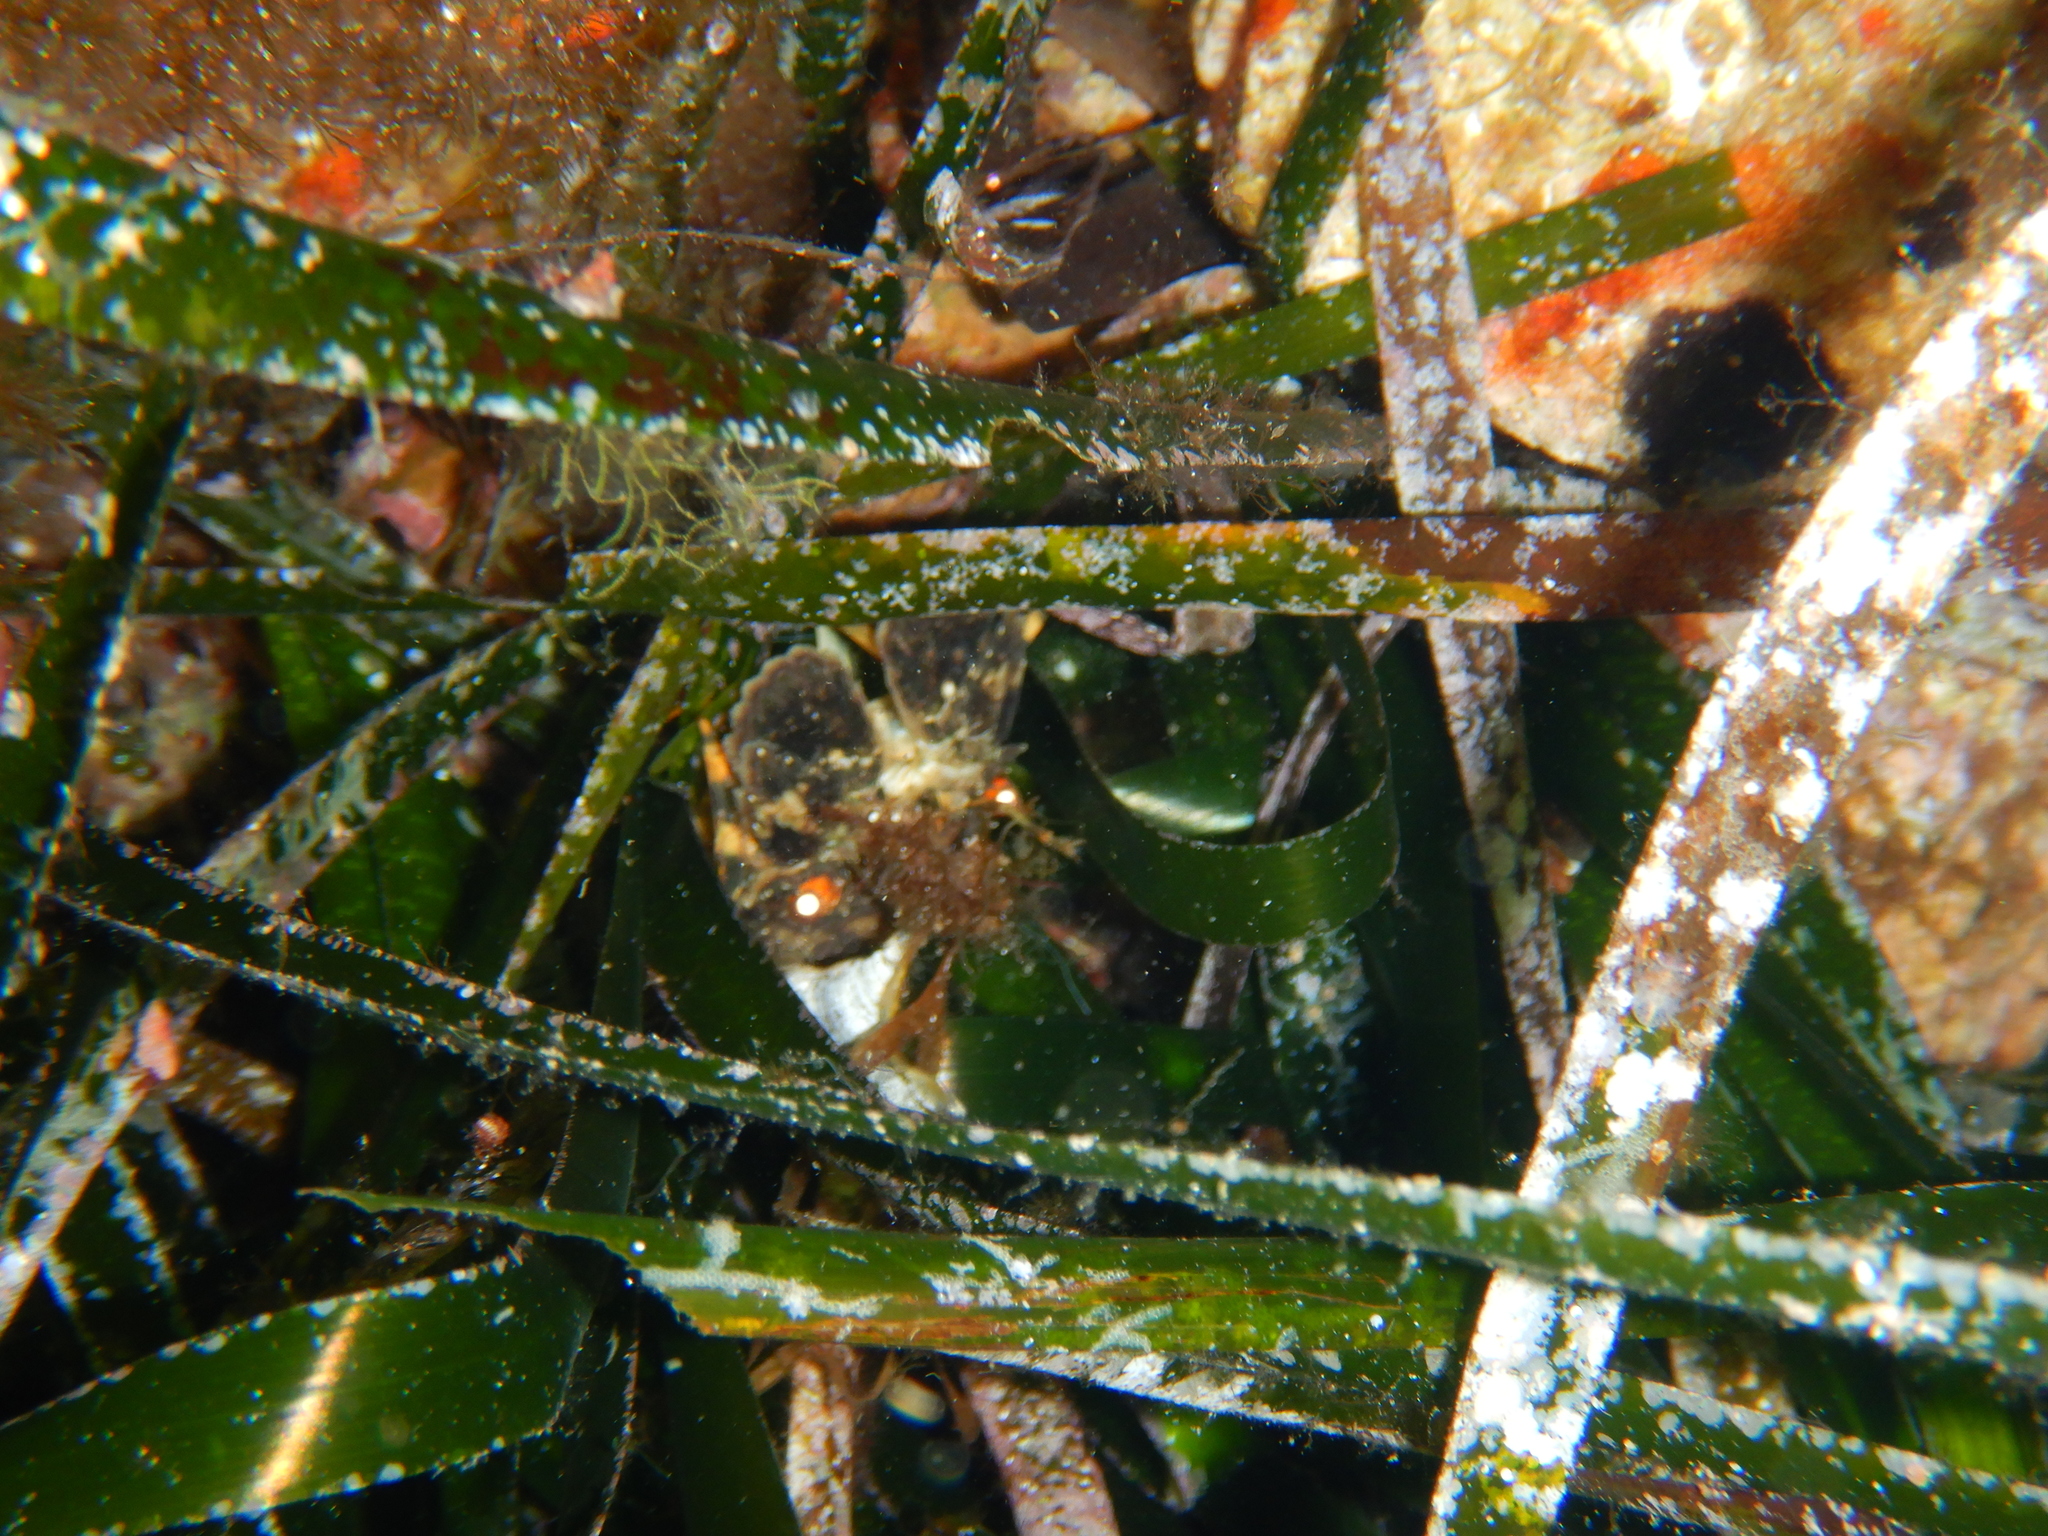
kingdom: Animalia
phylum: Arthropoda
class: Malacostraca
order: Decapoda
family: Scyllaridae
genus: Scyllarus
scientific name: Scyllarus arctus
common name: Small european locust lobster
